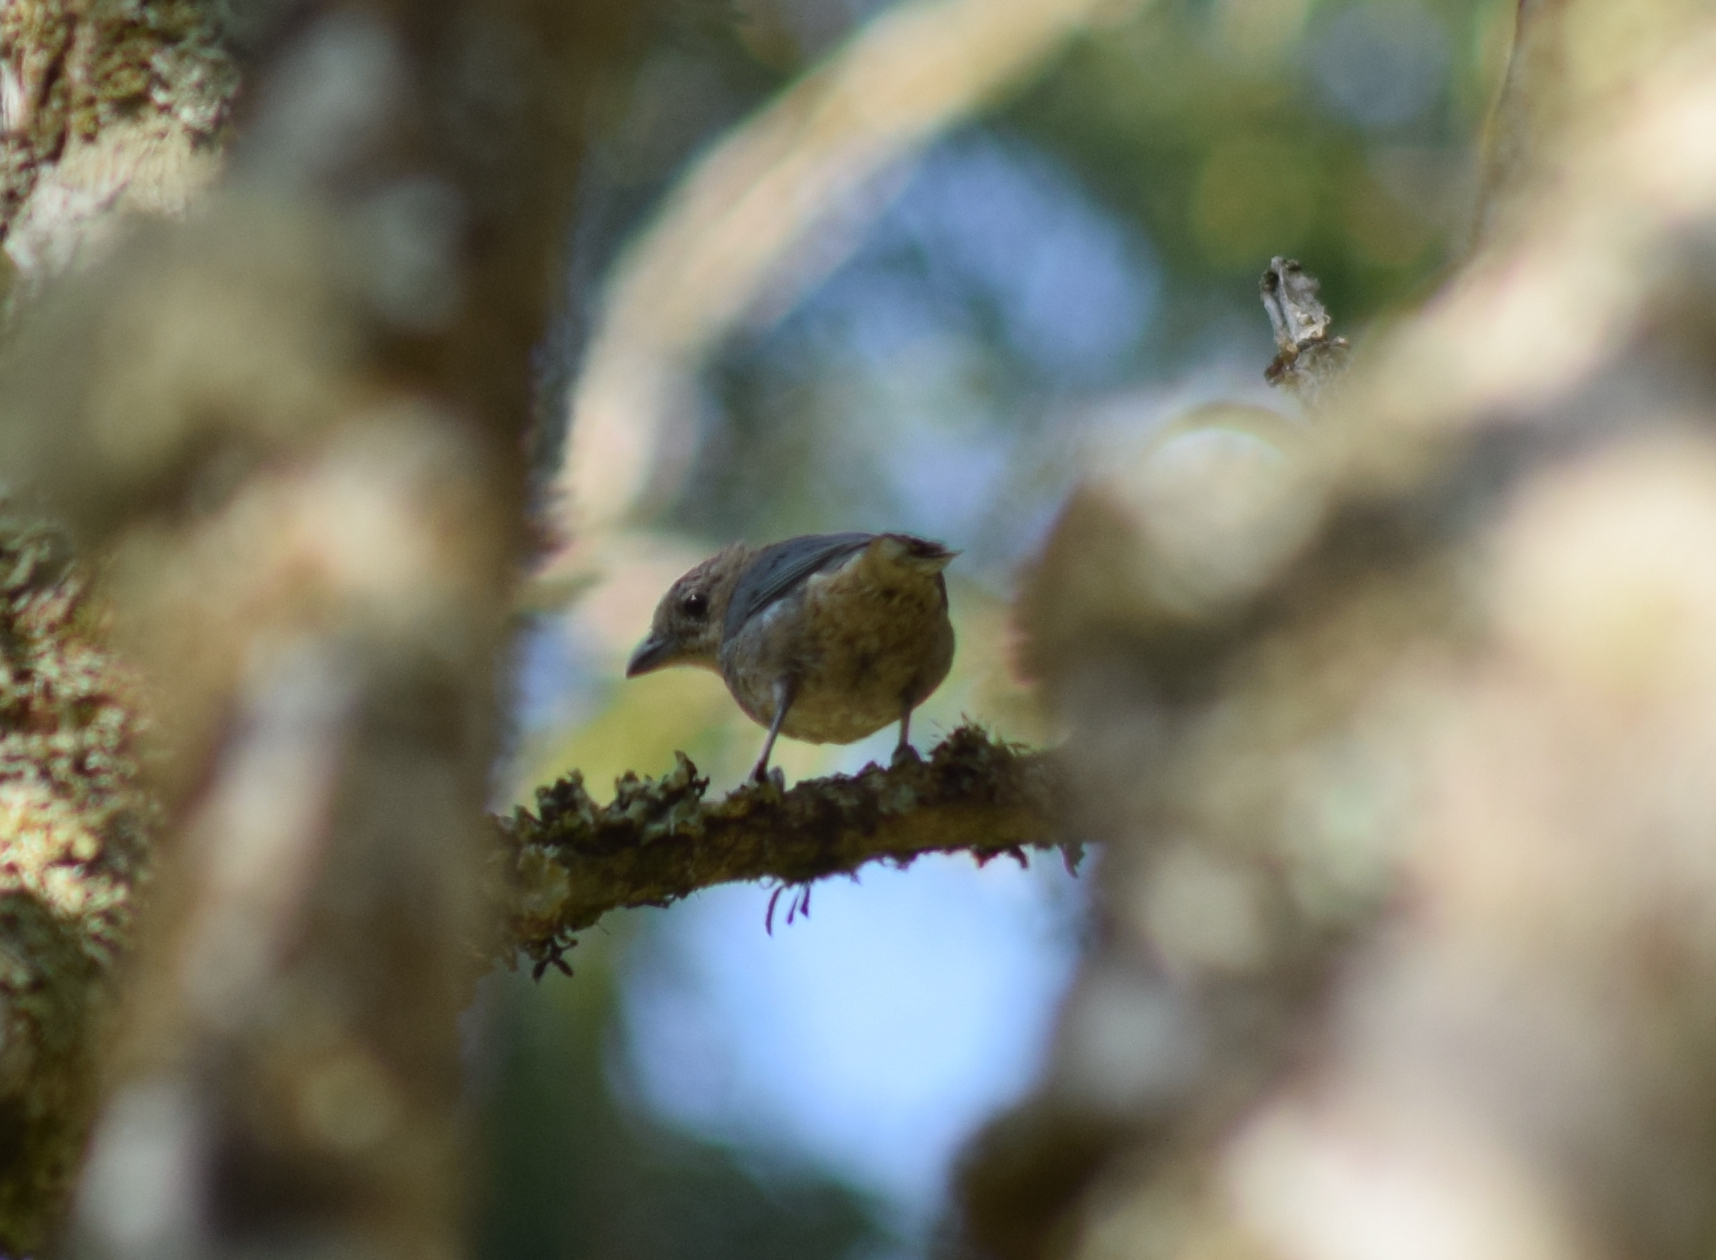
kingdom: Animalia
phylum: Chordata
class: Aves
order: Passeriformes
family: Thraupidae
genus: Thraupis
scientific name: Thraupis sayaca
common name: Sayaca tanager
